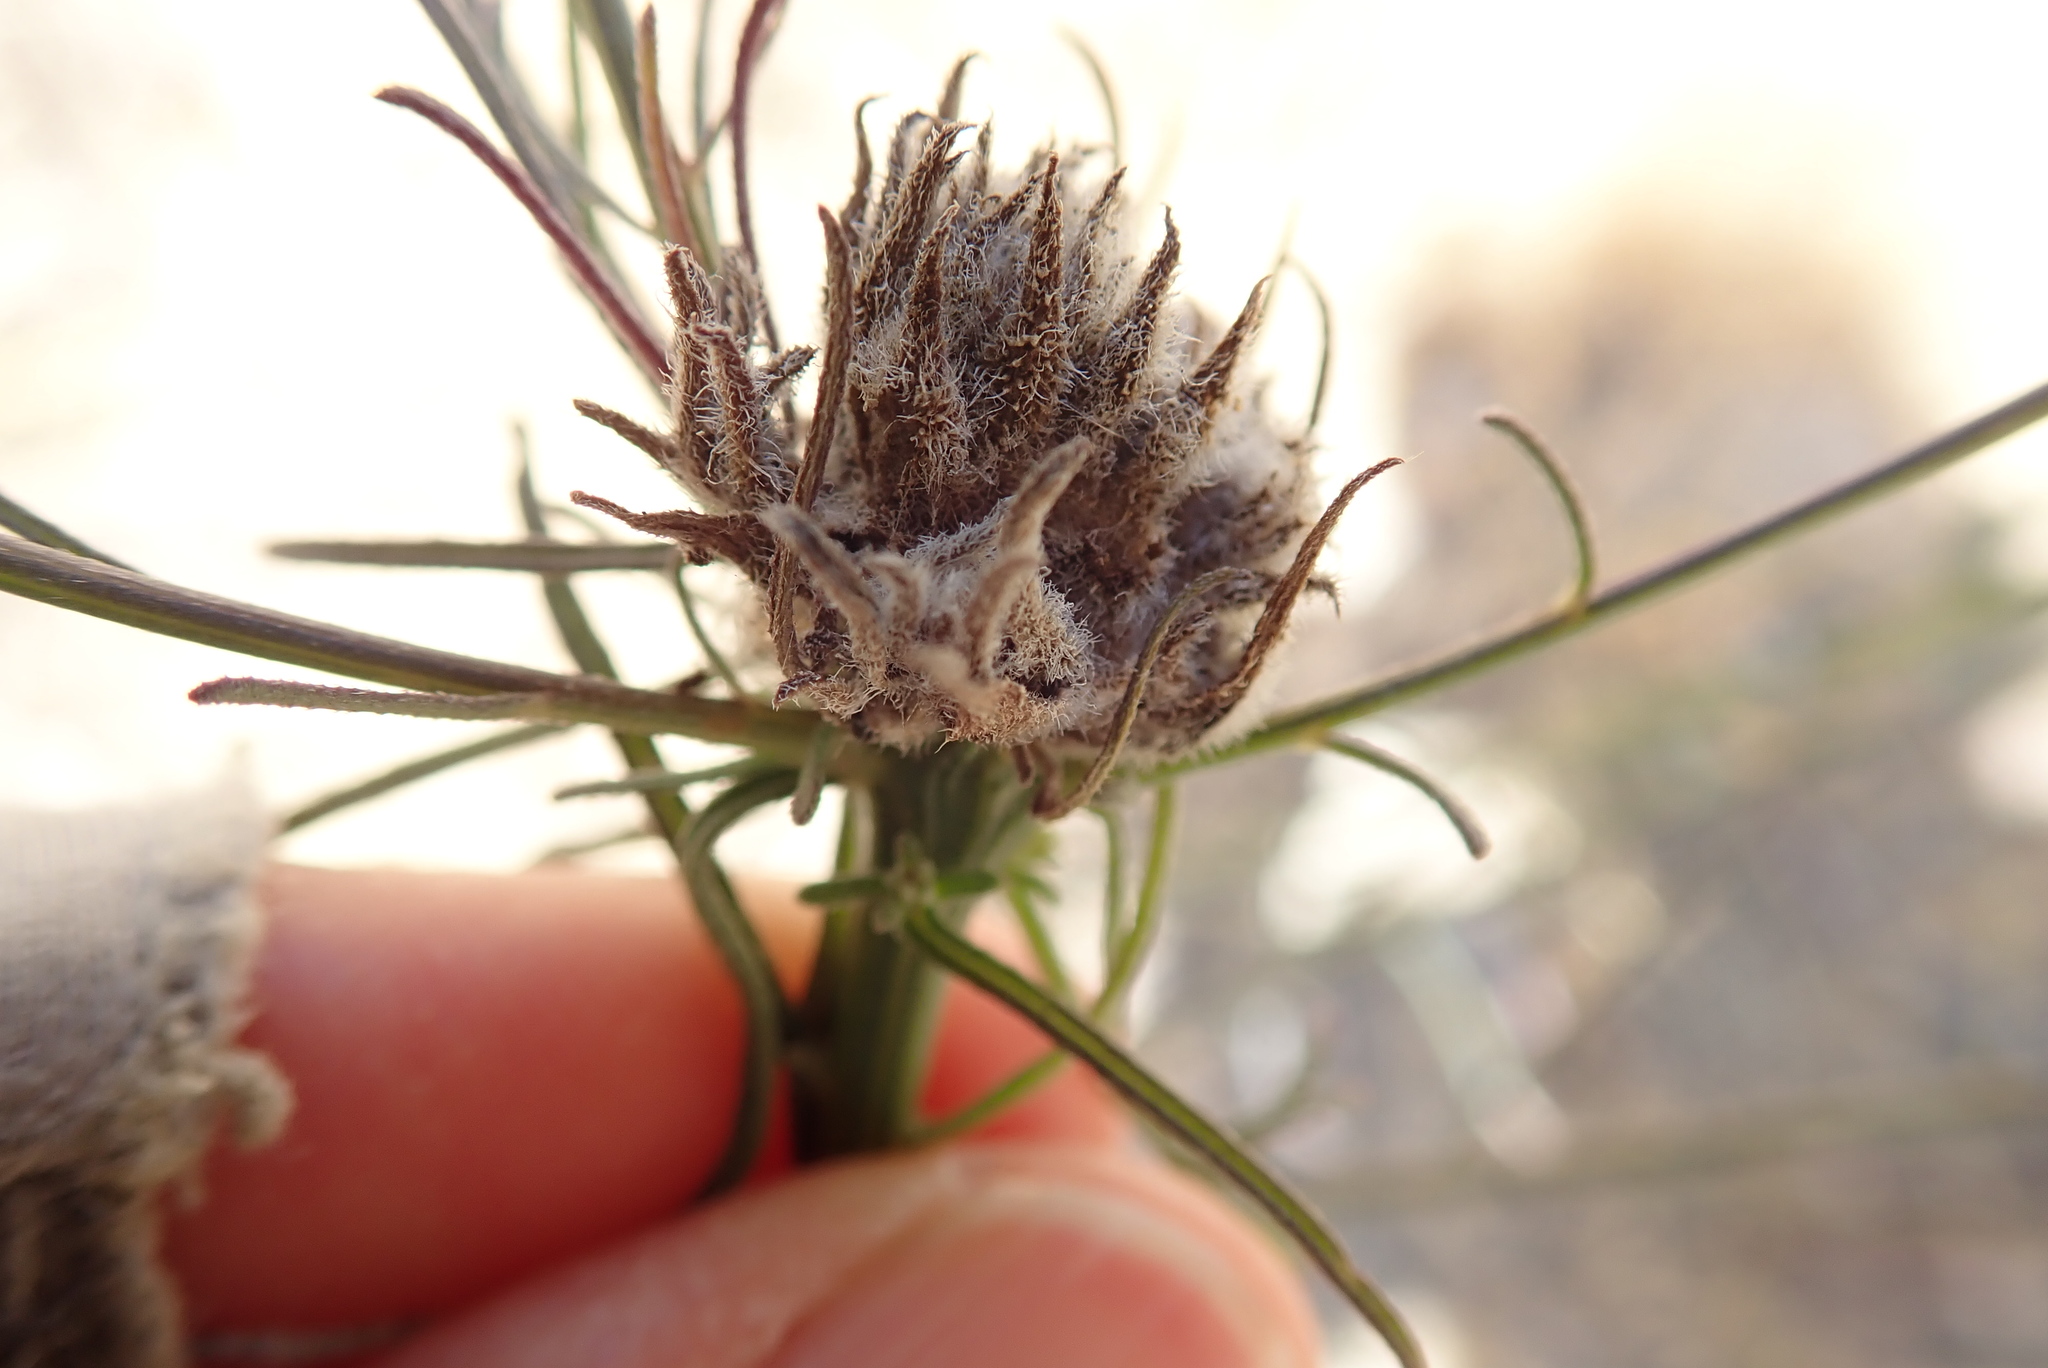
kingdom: Animalia
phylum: Arthropoda
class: Insecta
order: Diptera
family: Cecidomyiidae
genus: Rhopalomyia
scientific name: Rhopalomyia erigerontis
